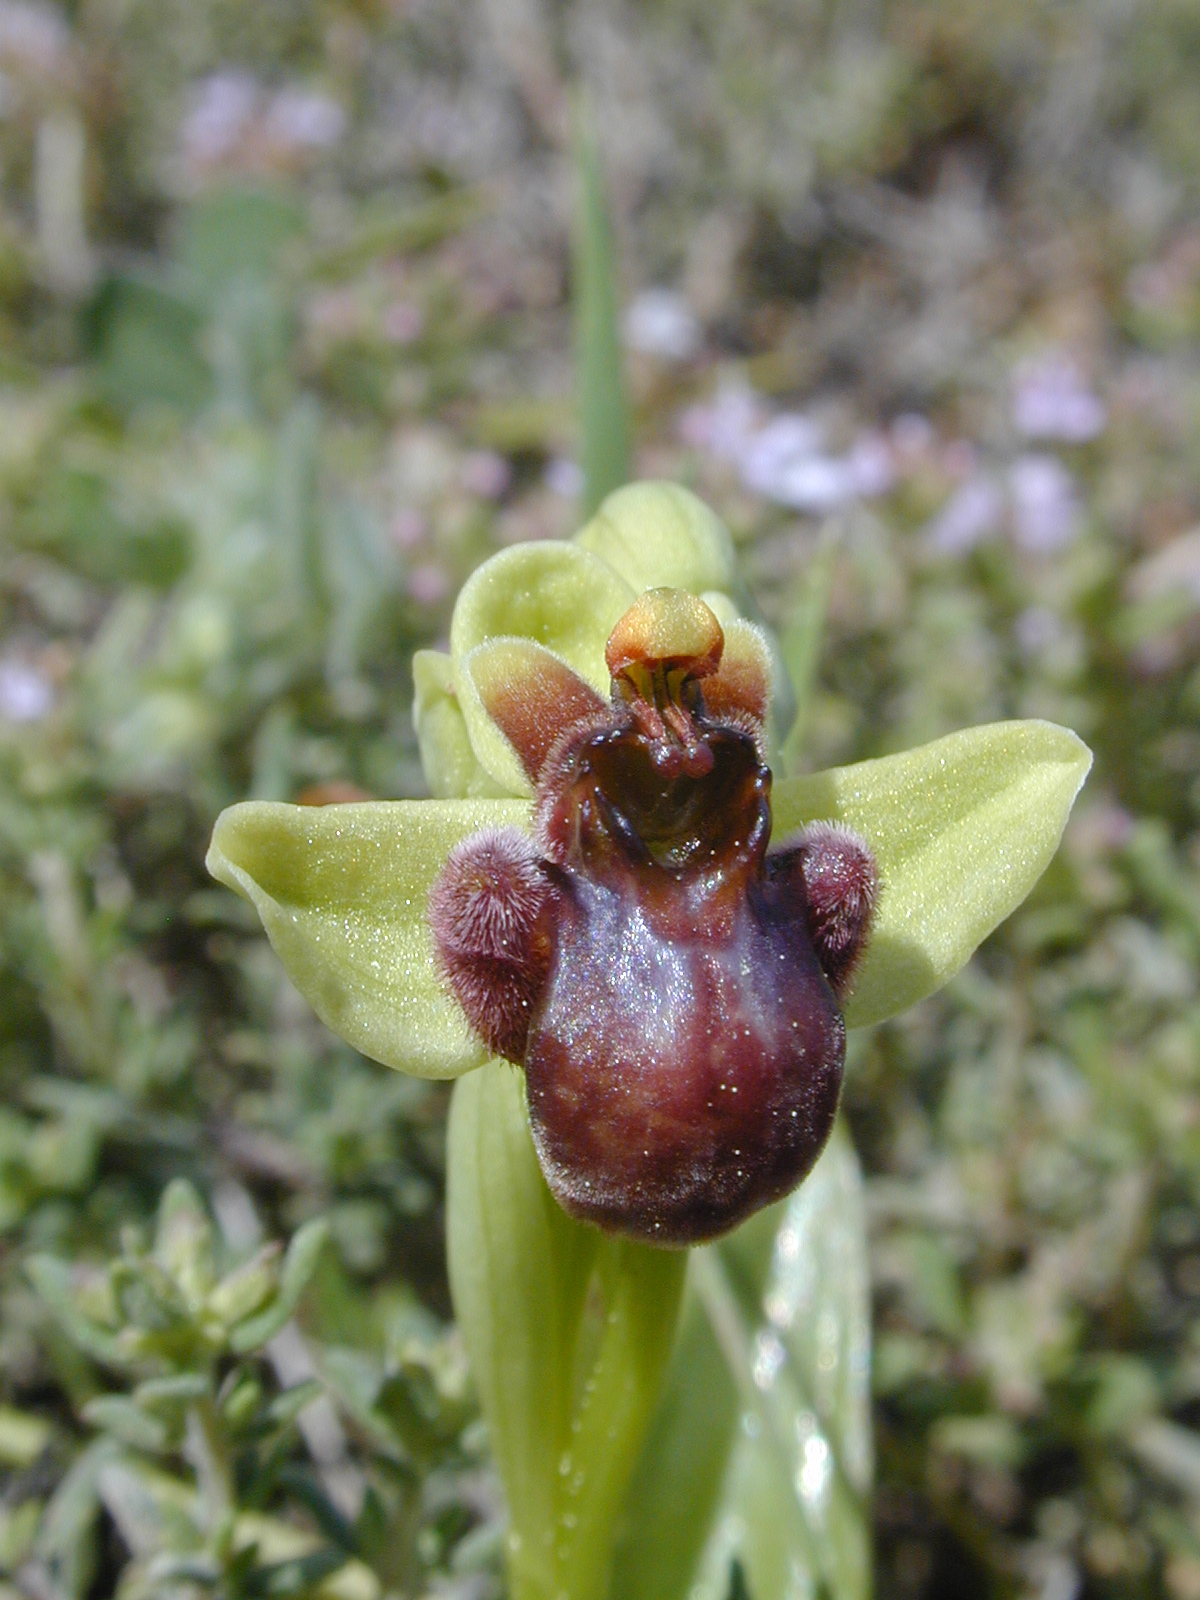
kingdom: Plantae
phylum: Tracheophyta
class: Liliopsida
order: Asparagales
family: Orchidaceae
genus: Ophrys
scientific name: Ophrys bombyliflora
